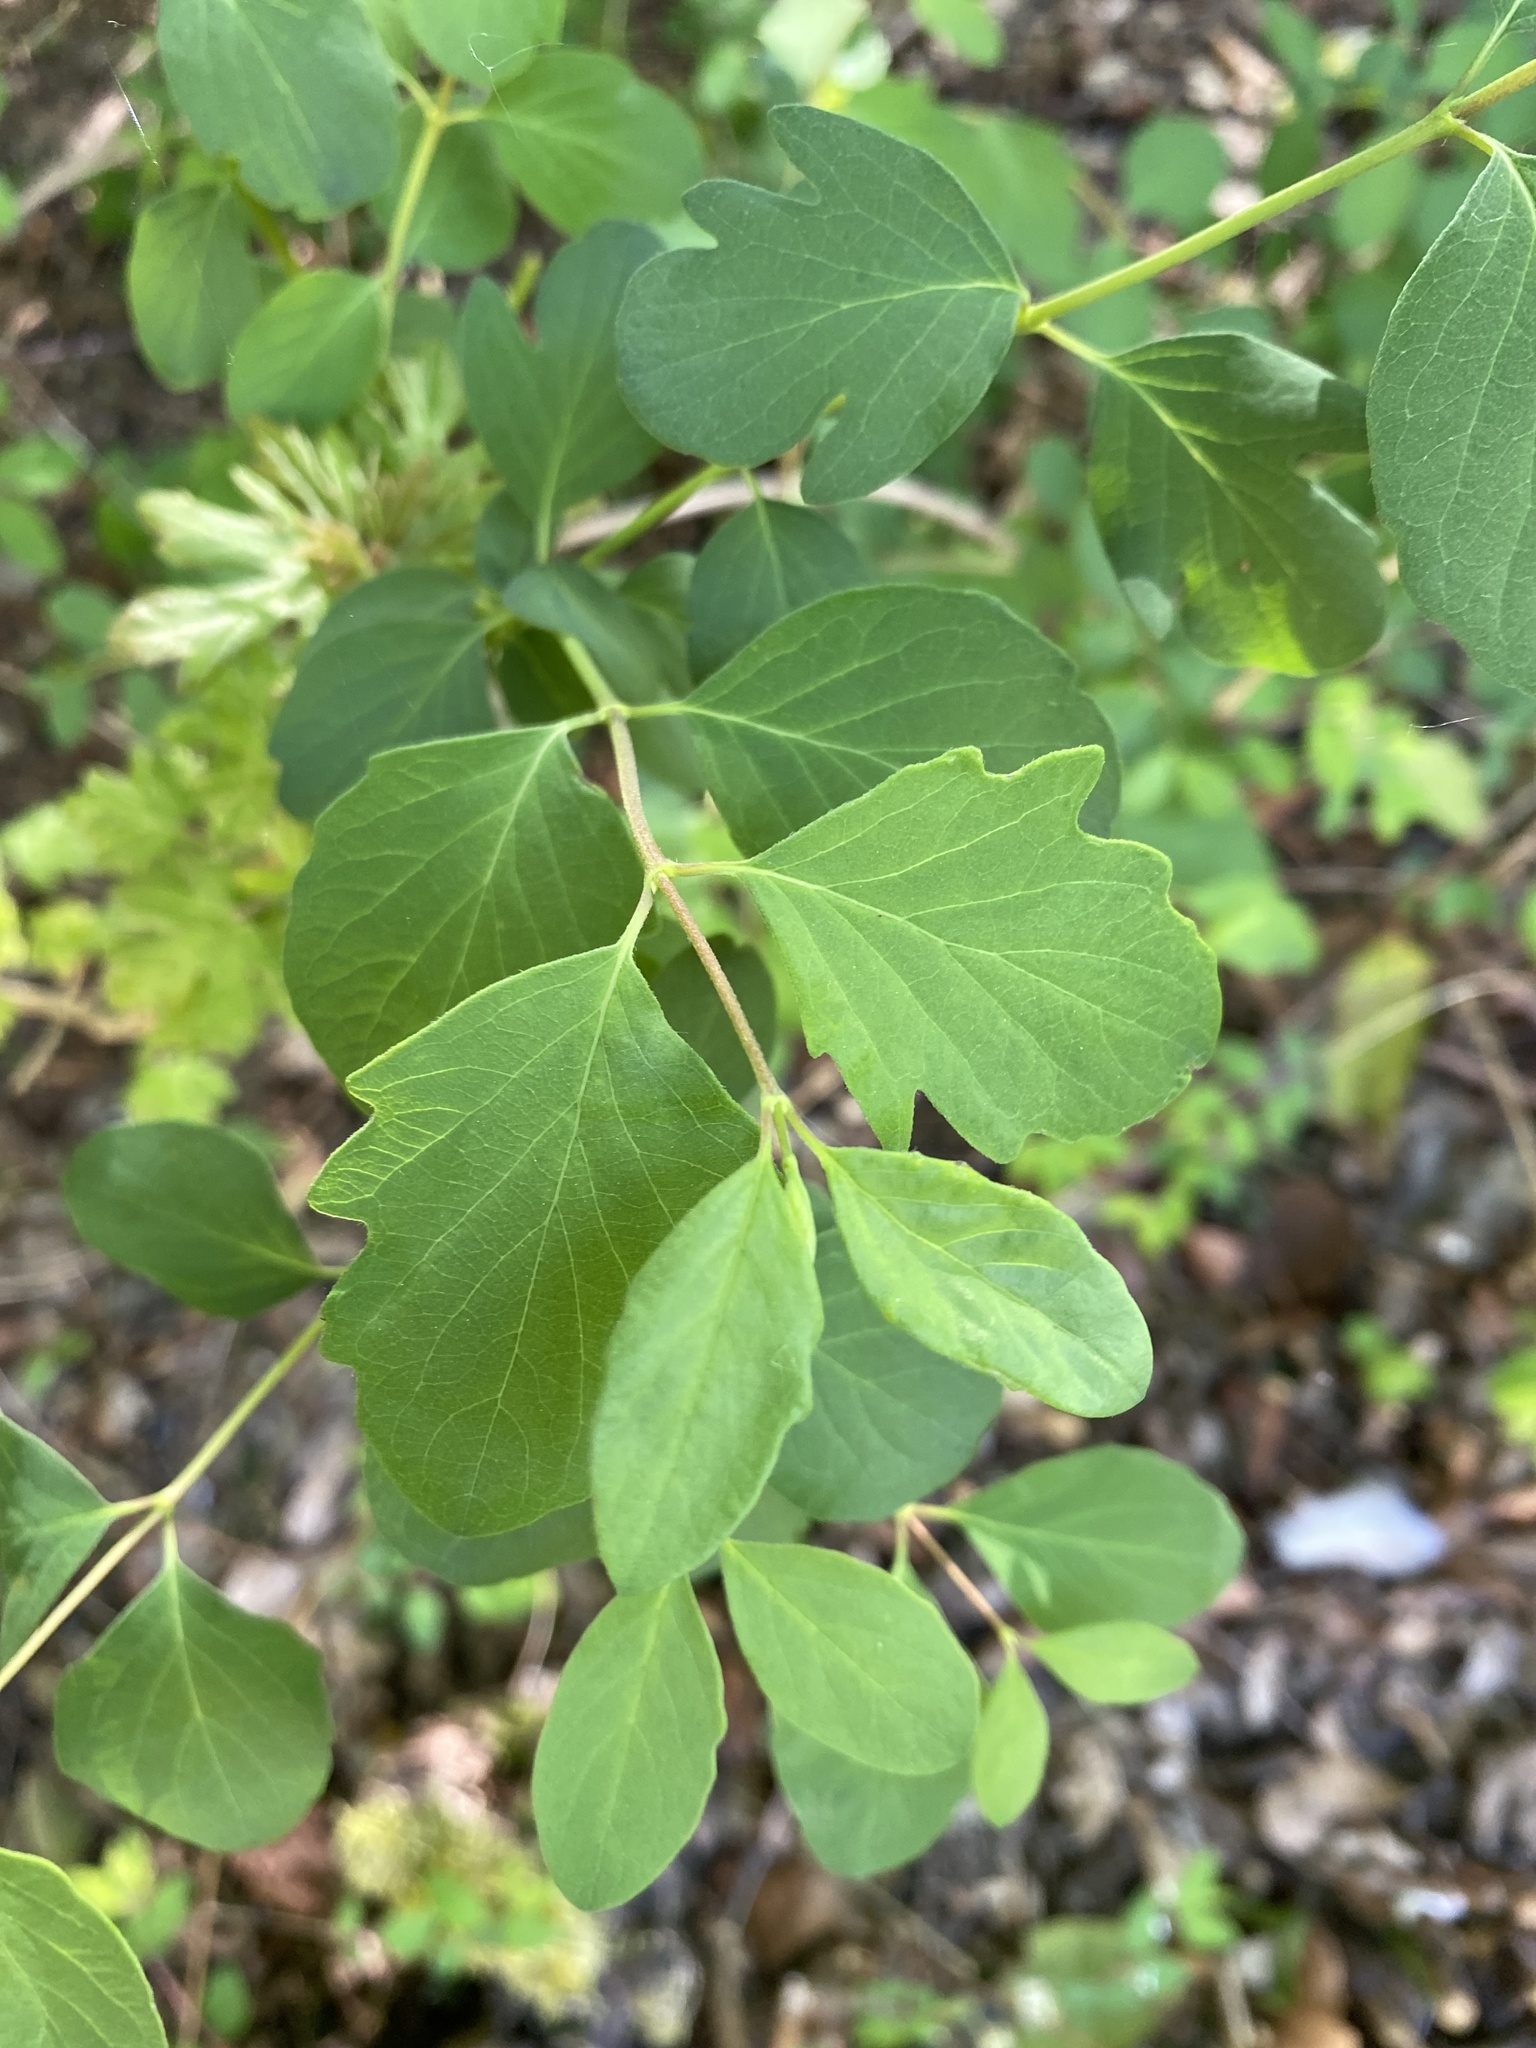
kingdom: Plantae
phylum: Tracheophyta
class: Magnoliopsida
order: Dipsacales
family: Caprifoliaceae
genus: Symphoricarpos
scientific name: Symphoricarpos albus
